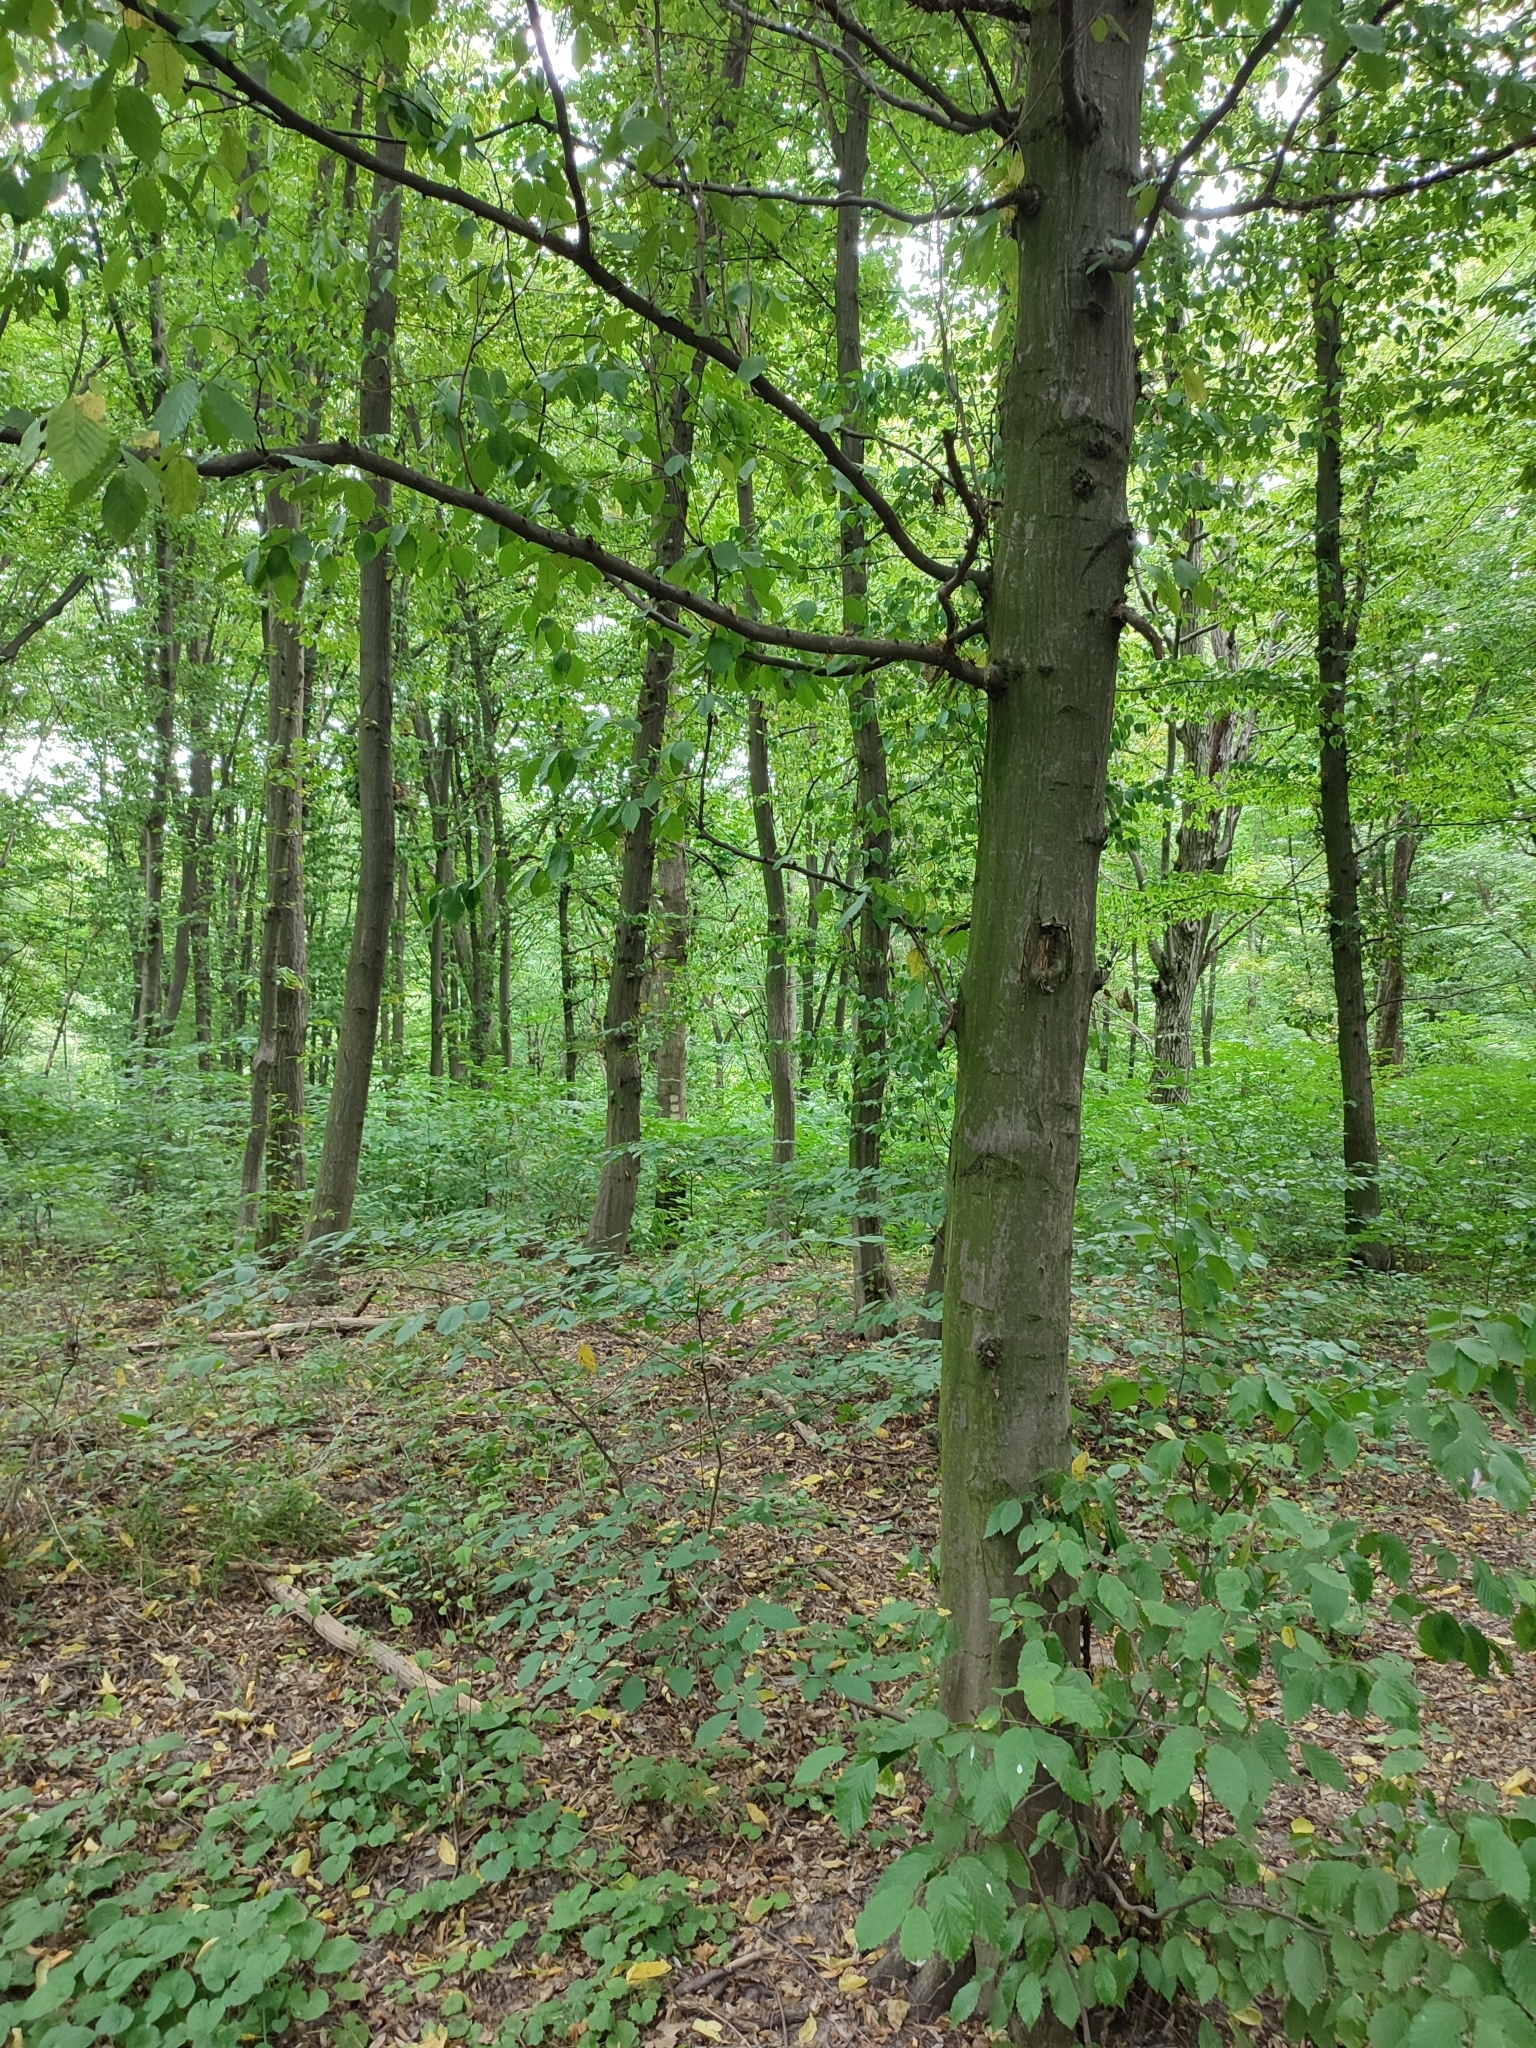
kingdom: Plantae
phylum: Tracheophyta
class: Magnoliopsida
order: Fagales
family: Betulaceae
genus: Carpinus
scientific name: Carpinus betulus
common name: Hornbeam
